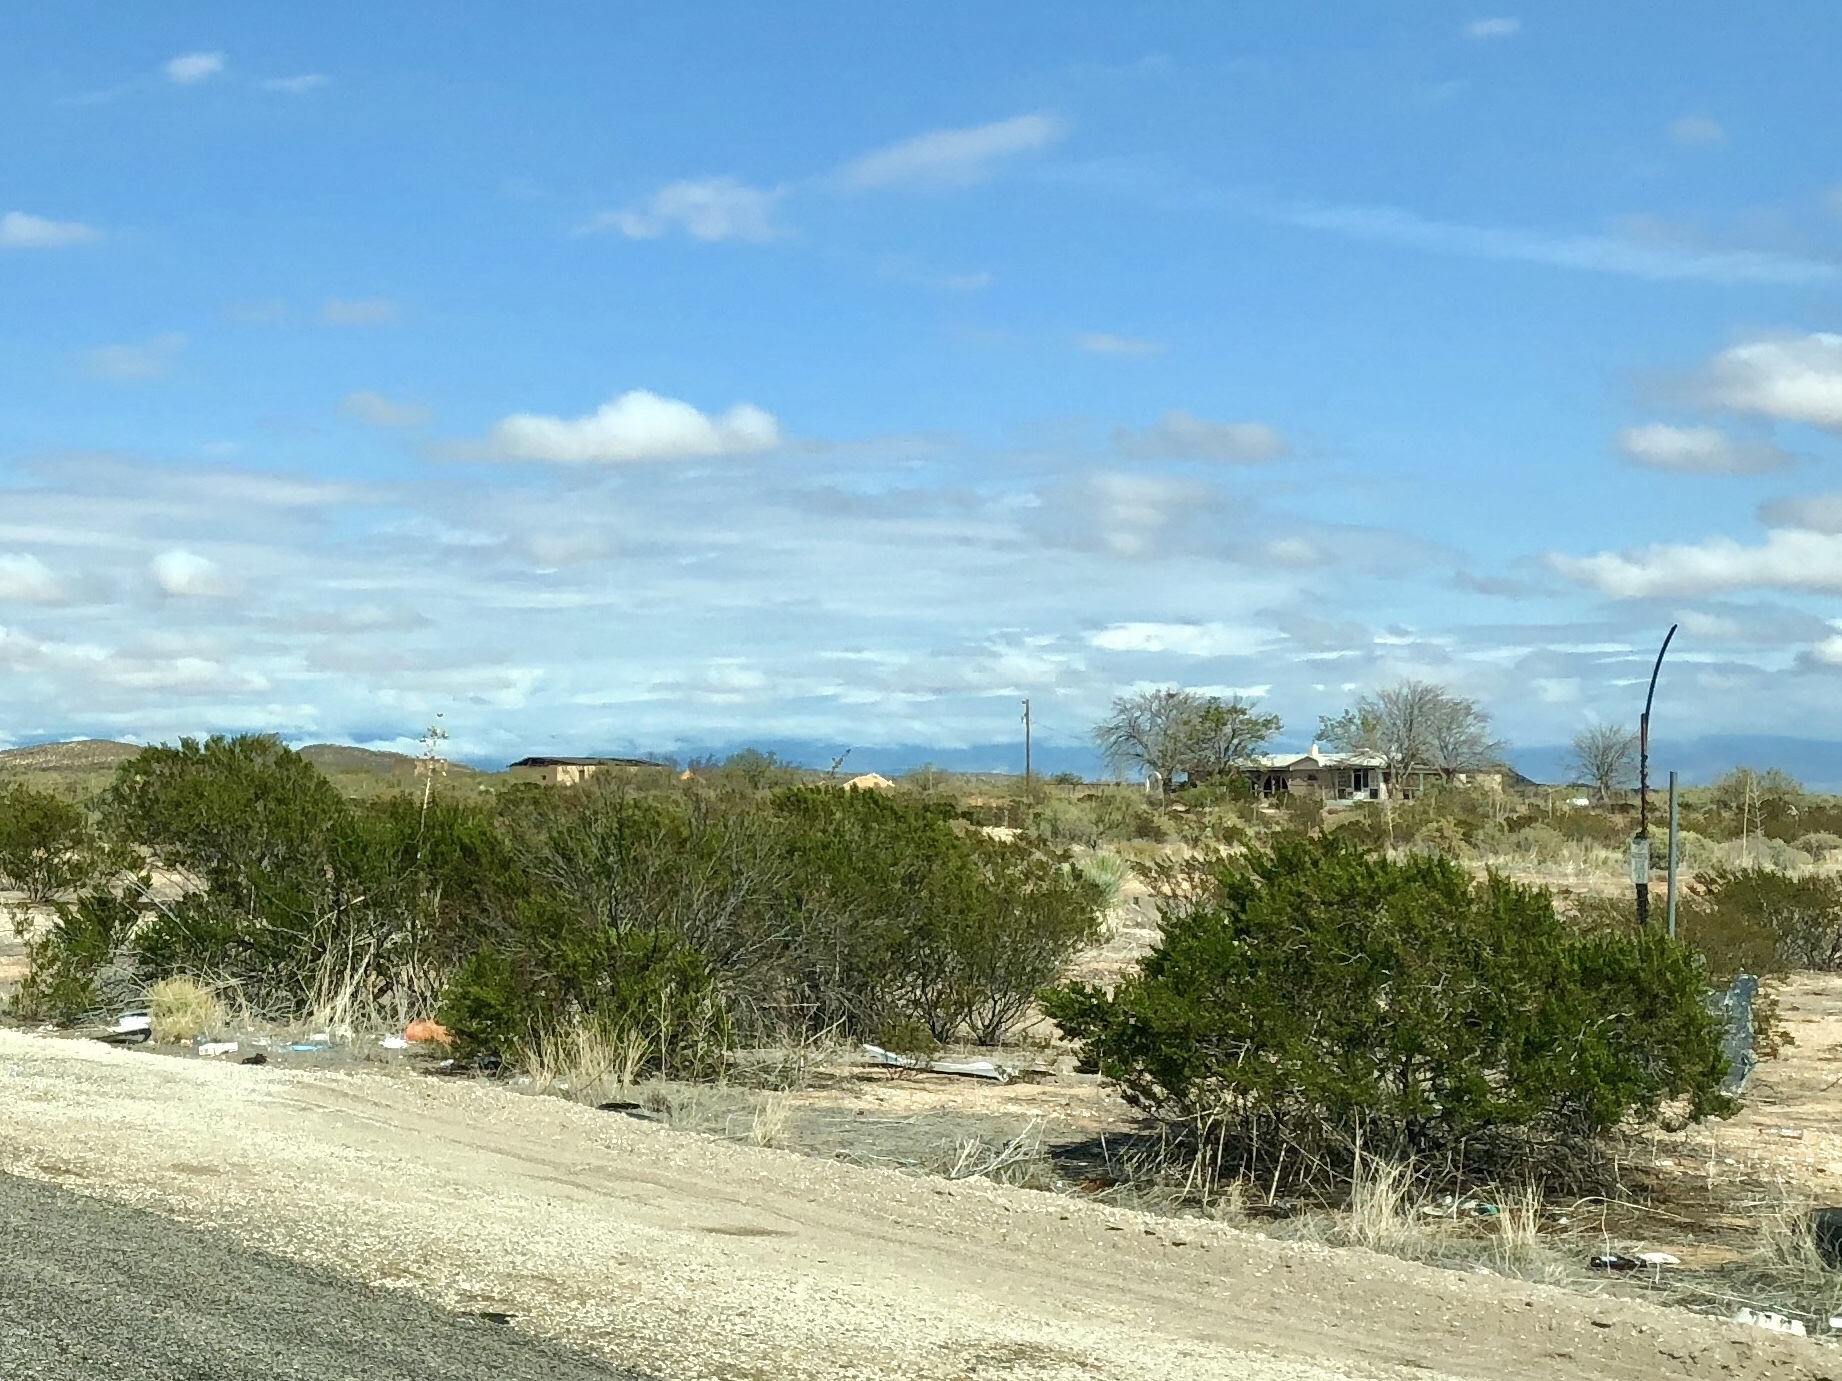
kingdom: Plantae
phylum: Tracheophyta
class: Magnoliopsida
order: Zygophyllales
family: Zygophyllaceae
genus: Larrea
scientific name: Larrea tridentata
